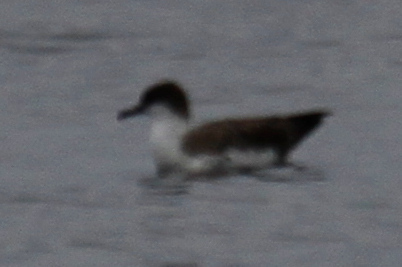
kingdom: Animalia
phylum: Chordata
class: Aves
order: Procellariiformes
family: Procellariidae
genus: Puffinus
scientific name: Puffinus gravis
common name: Great shearwater
